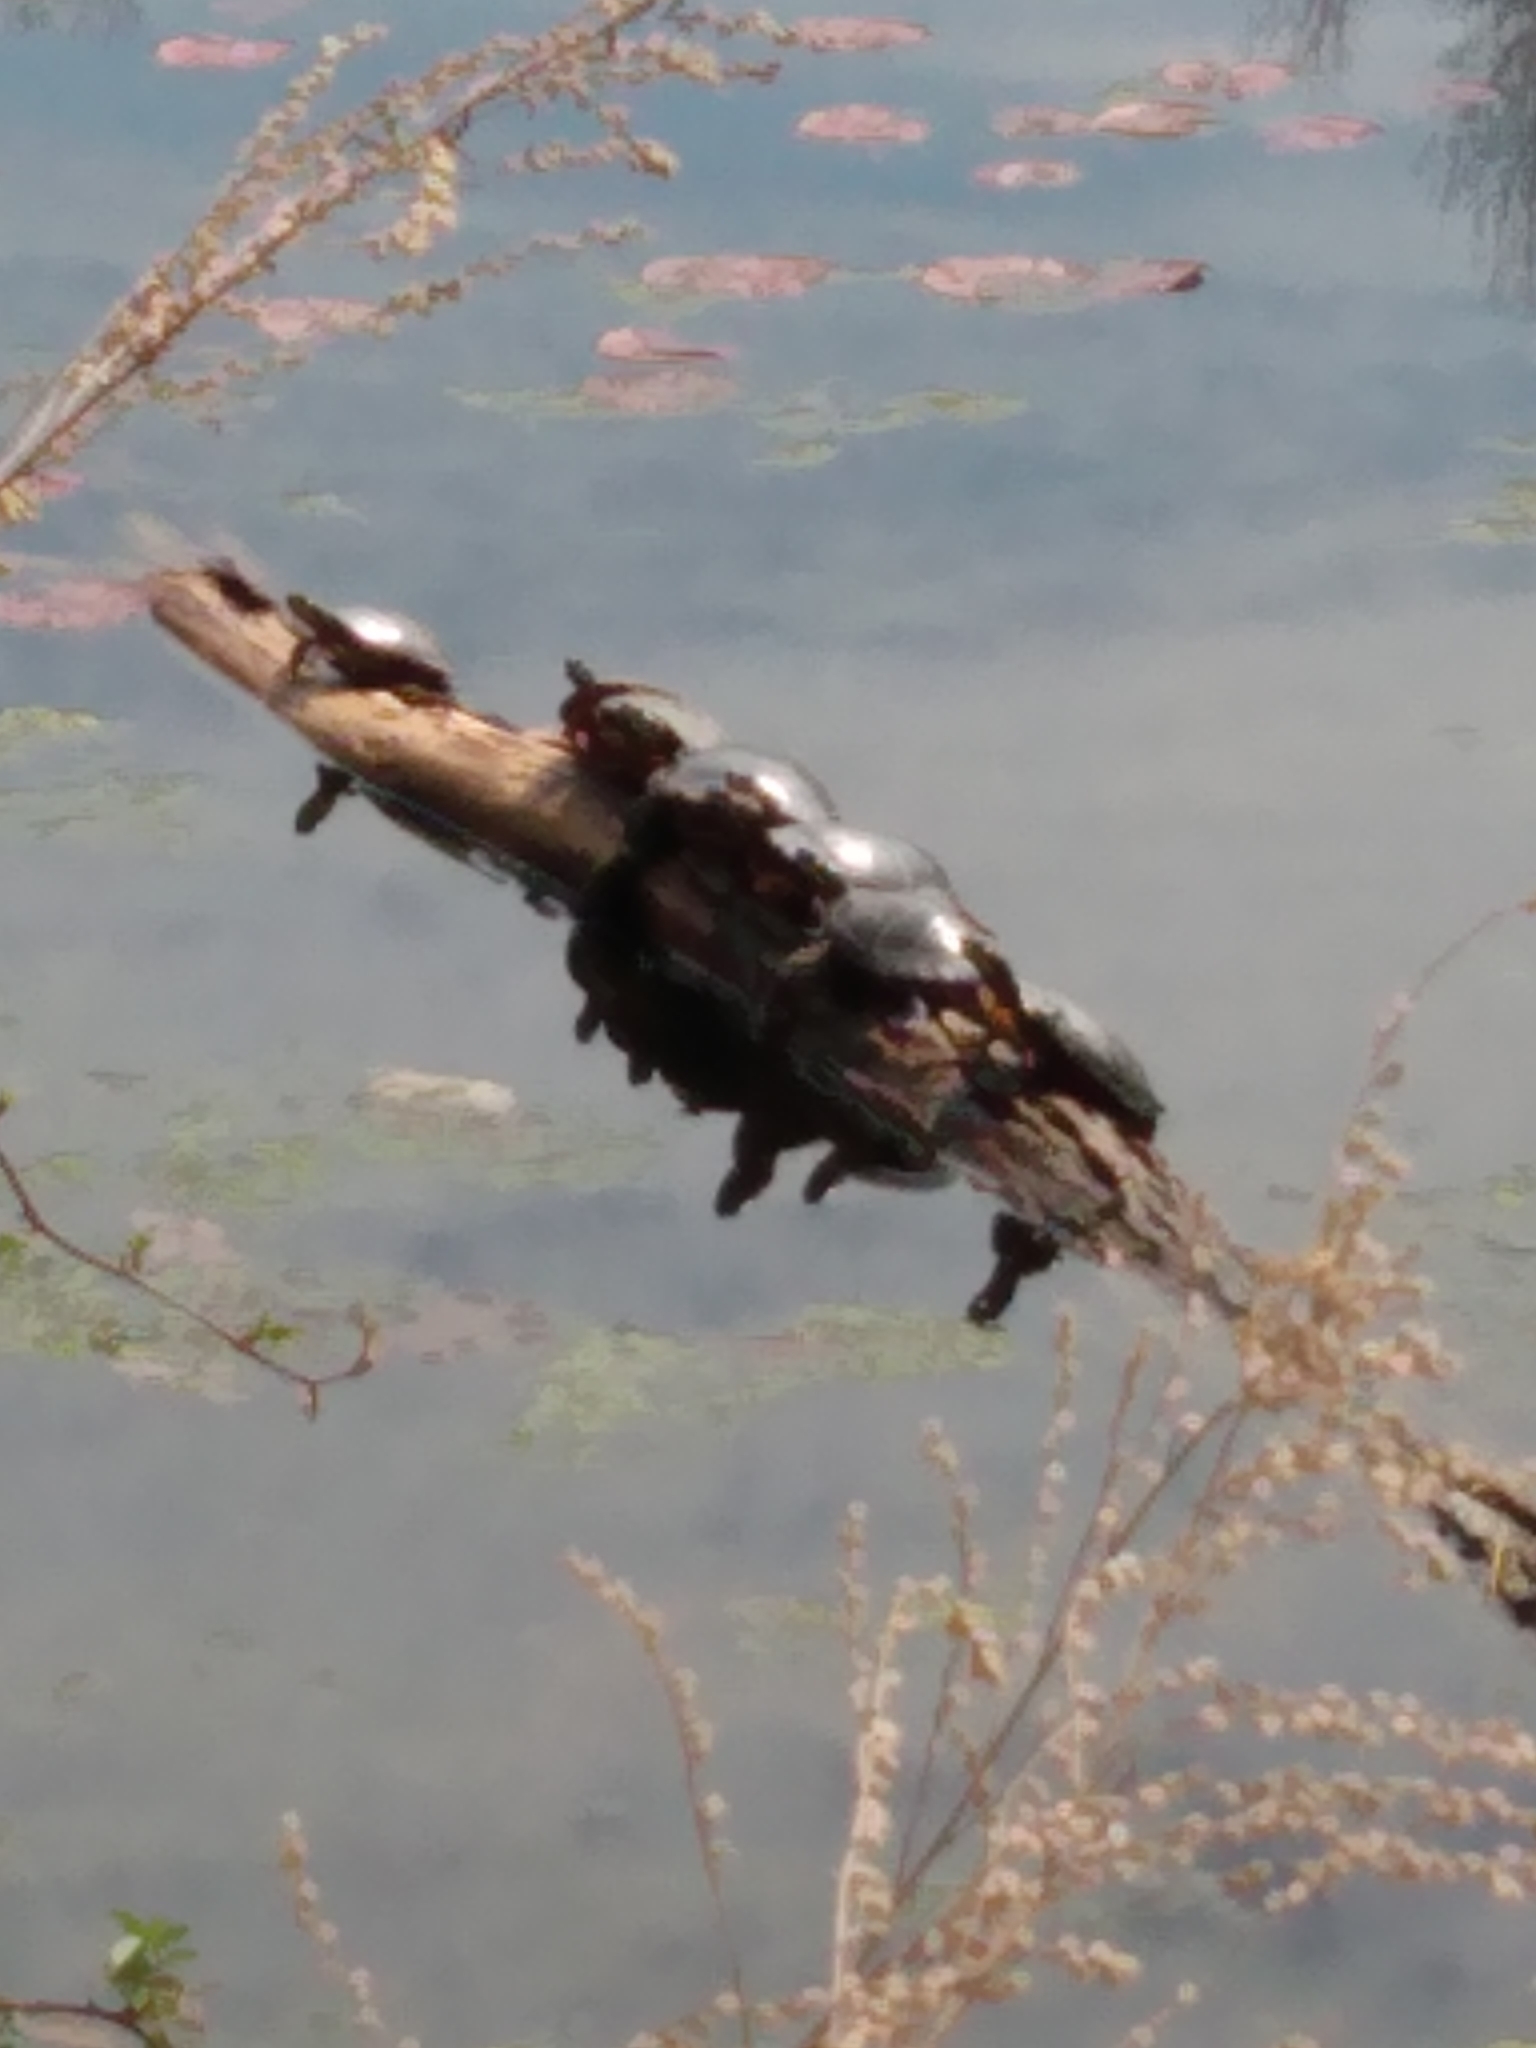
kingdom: Animalia
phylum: Chordata
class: Testudines
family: Emydidae
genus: Chrysemys
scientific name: Chrysemys picta
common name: Painted turtle
